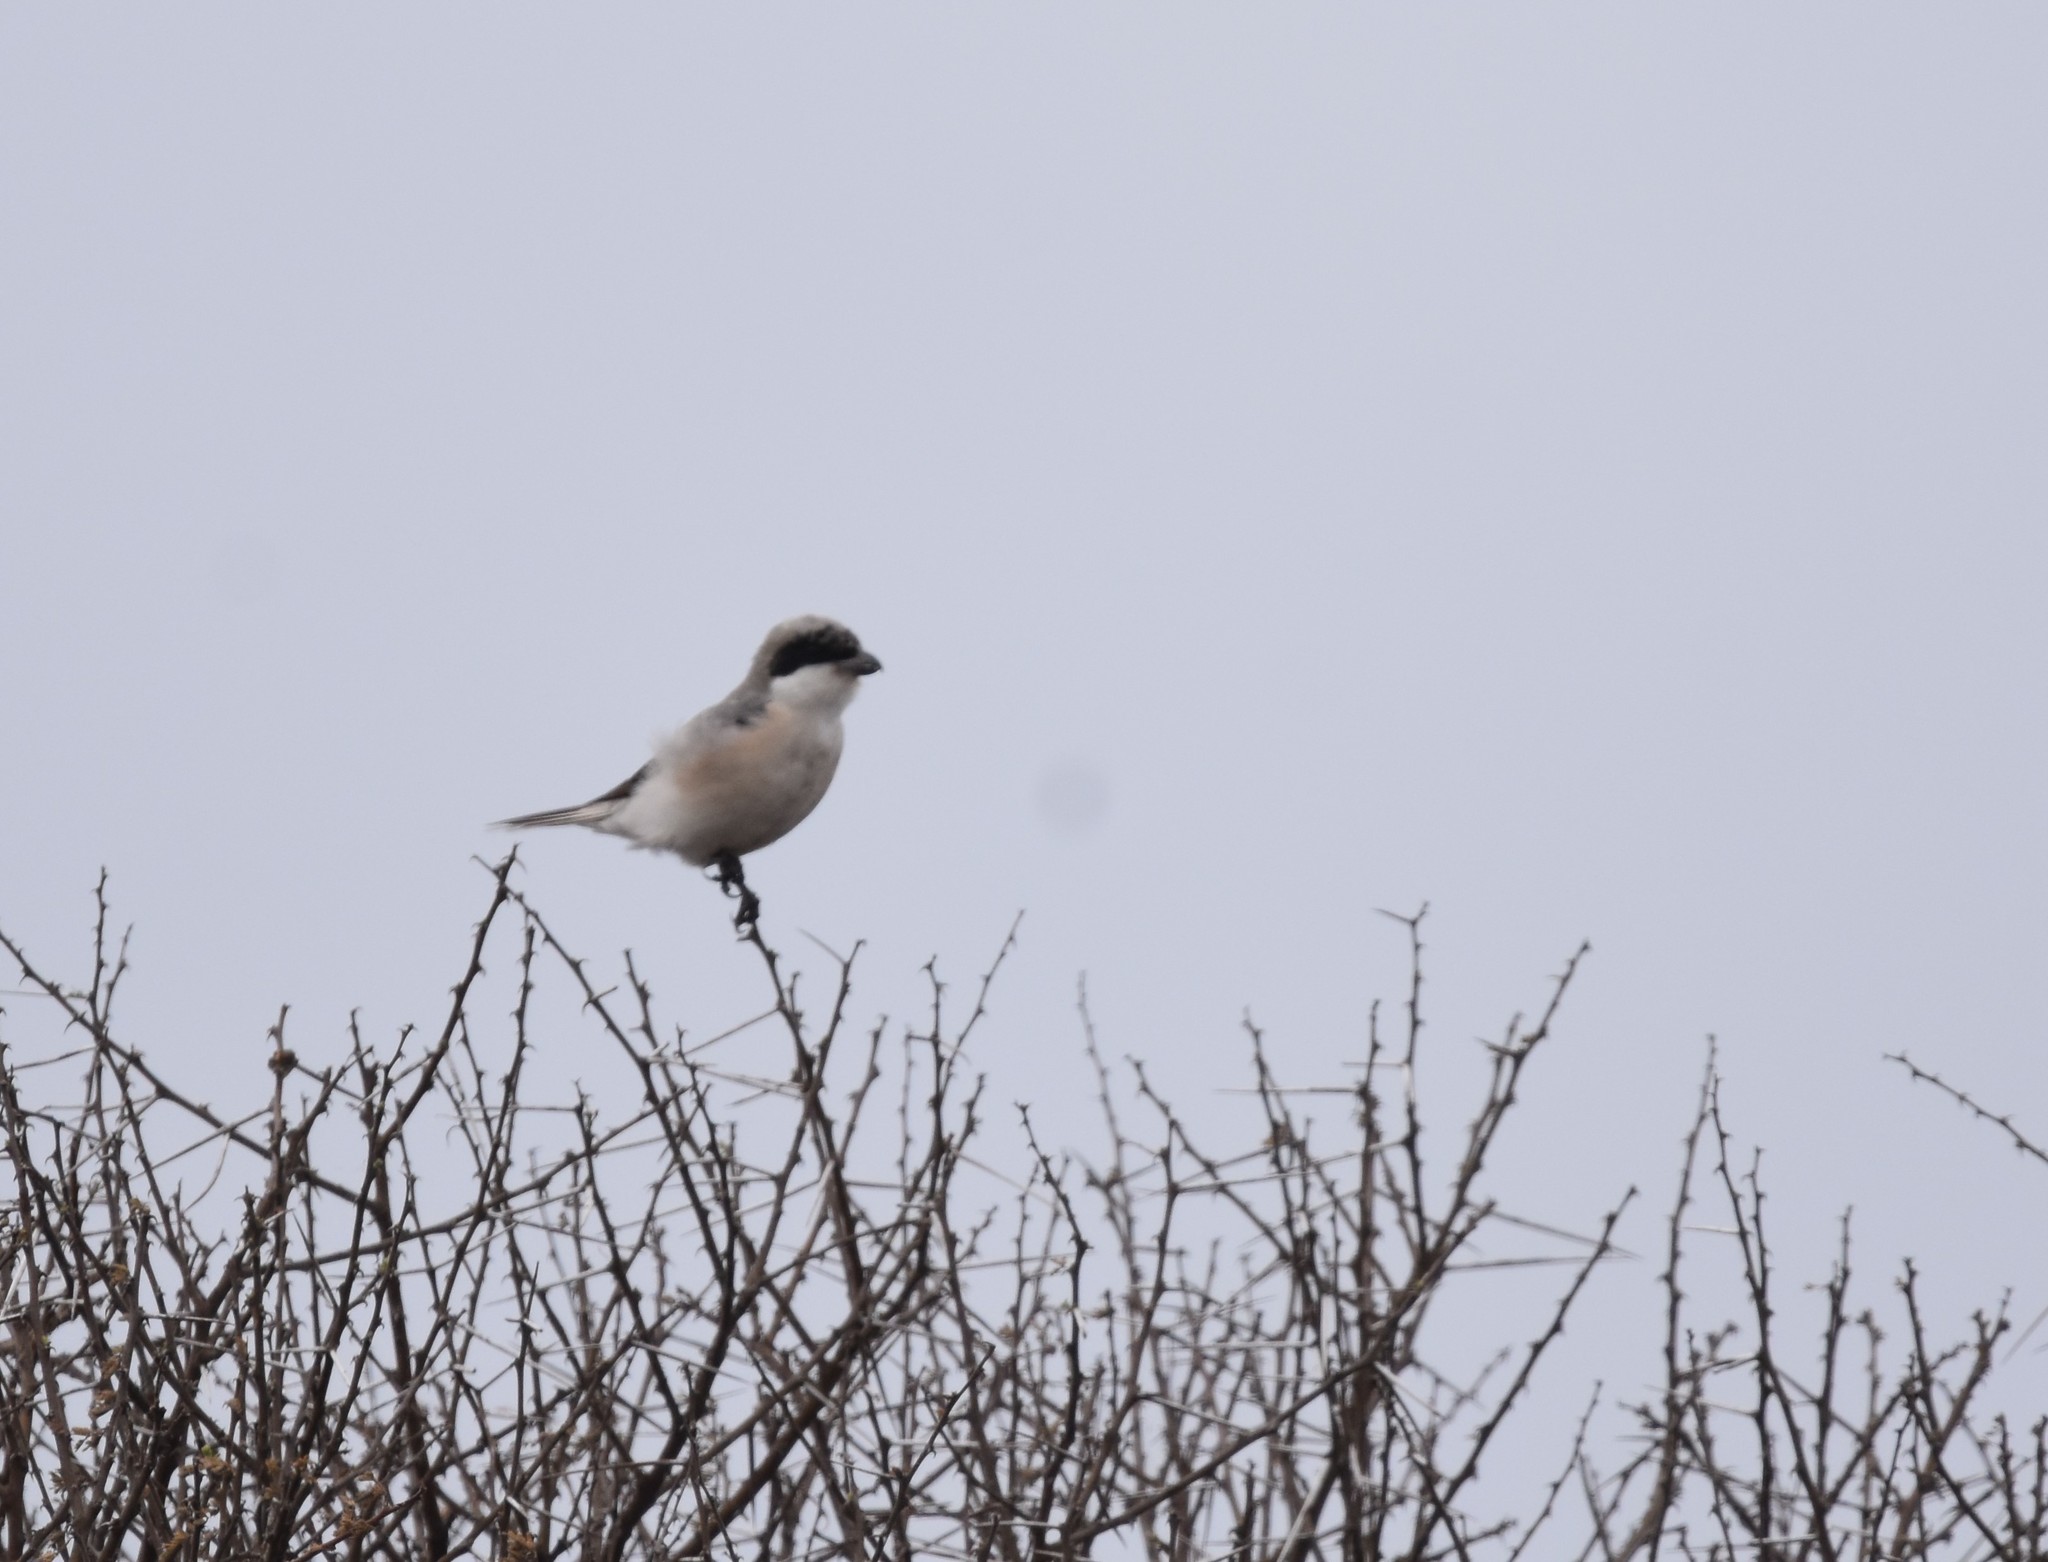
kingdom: Animalia
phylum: Chordata
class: Aves
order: Passeriformes
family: Laniidae
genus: Lanius
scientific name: Lanius minor
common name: Lesser grey shrike
